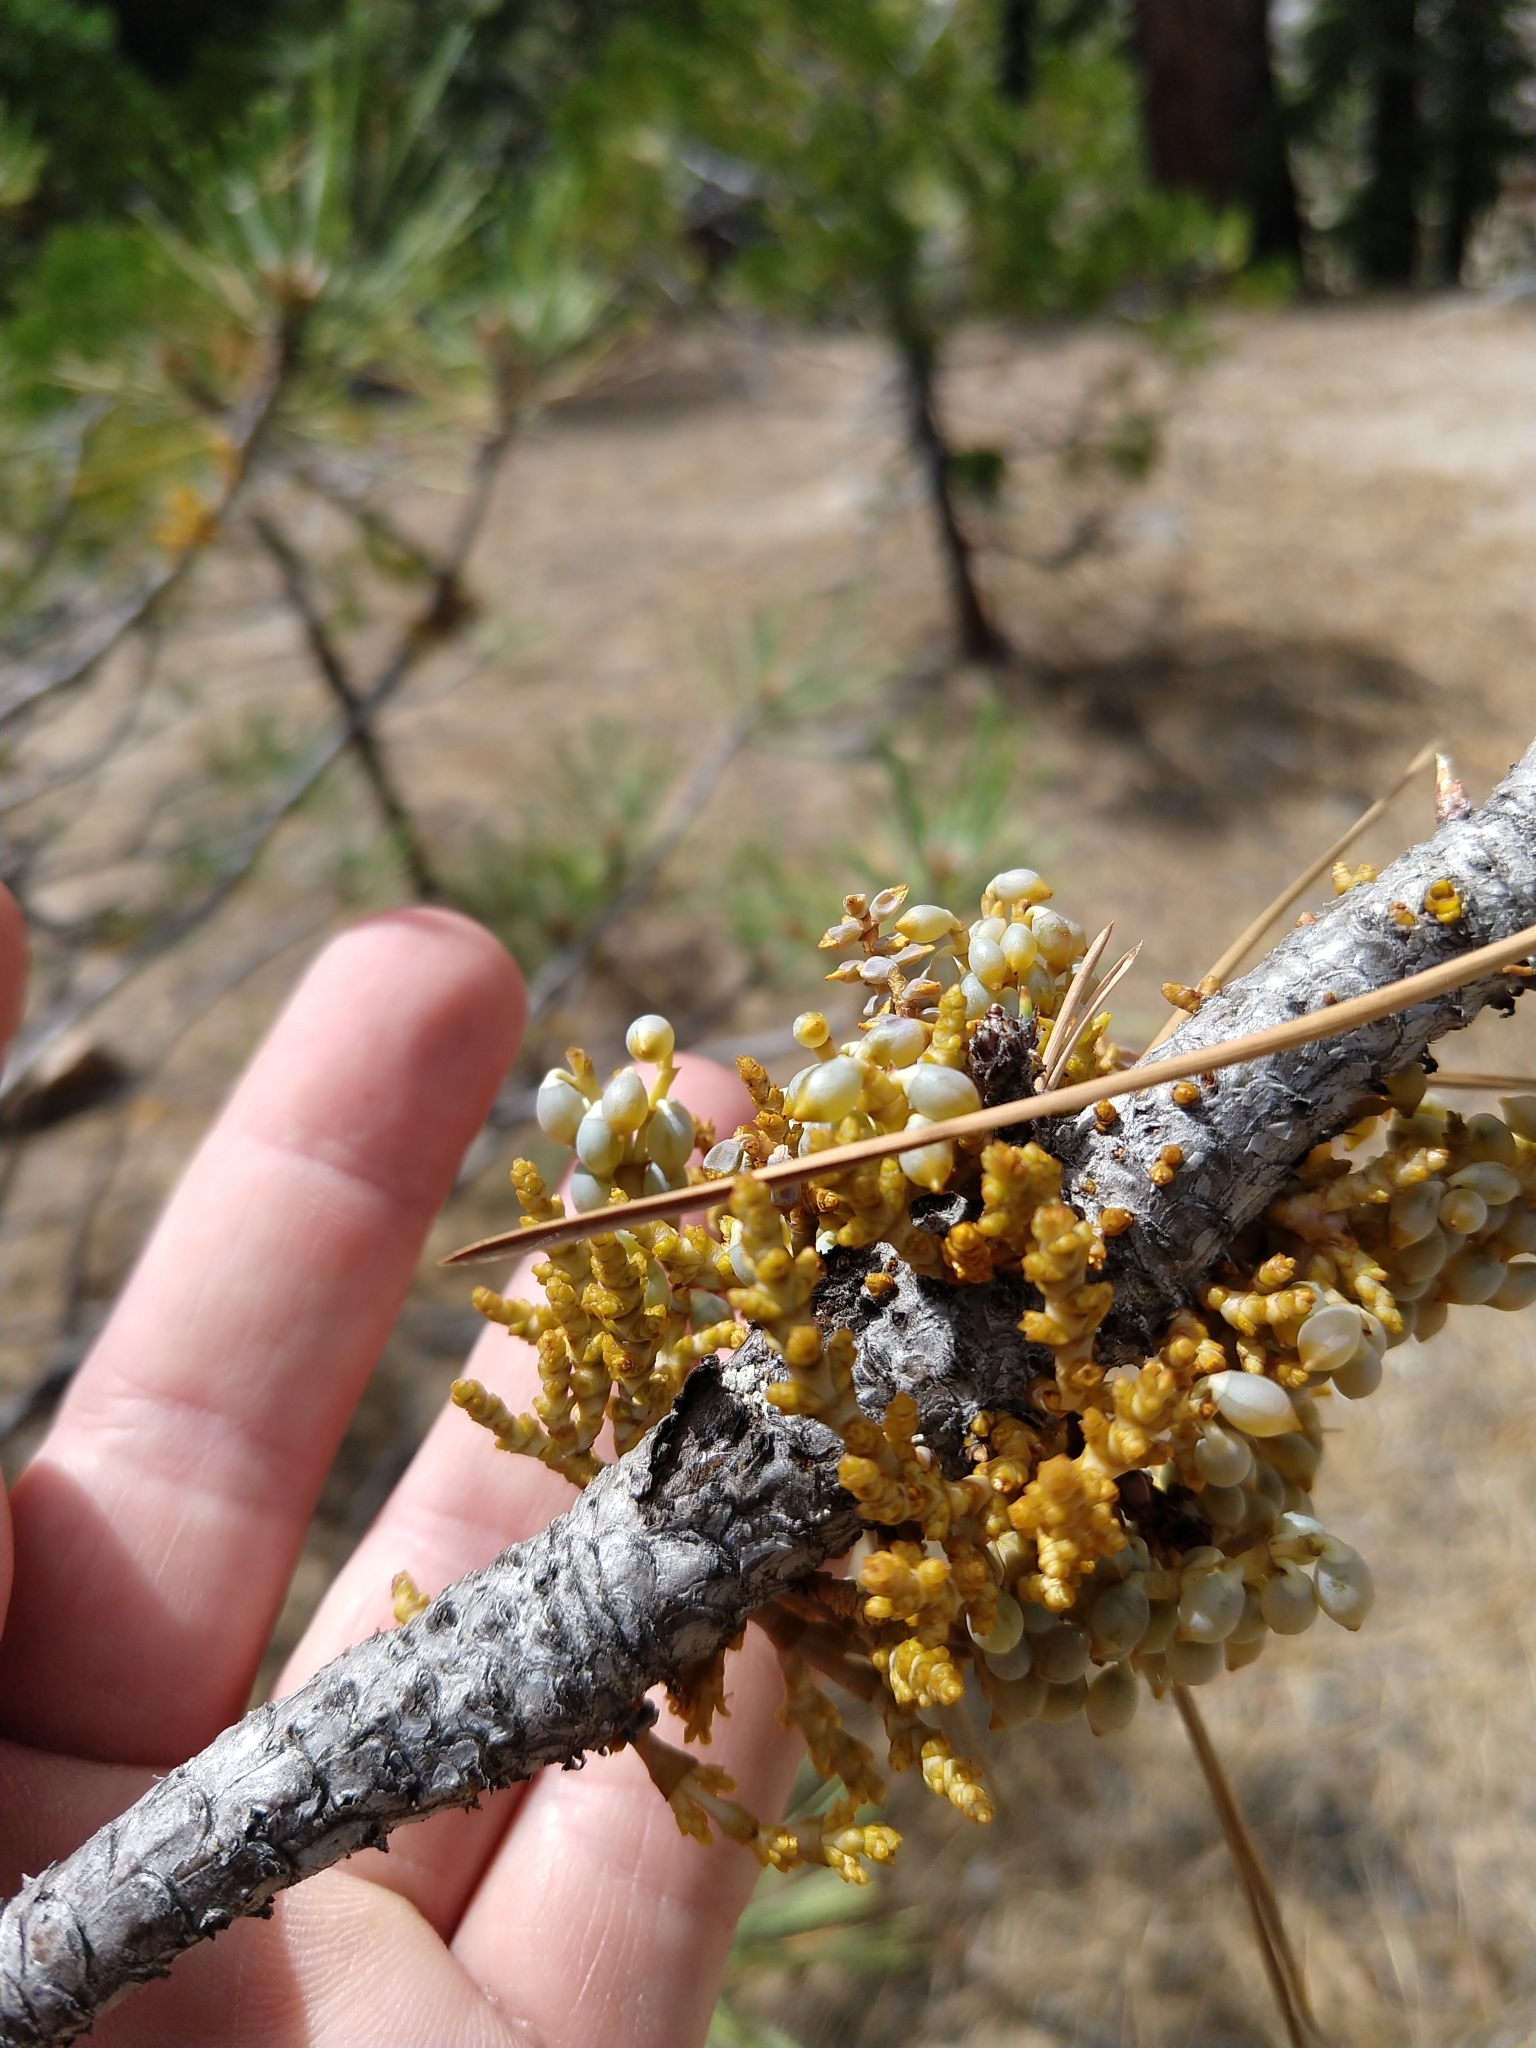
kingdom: Plantae
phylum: Tracheophyta
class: Magnoliopsida
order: Santalales
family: Viscaceae
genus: Arceuthobium
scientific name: Arceuthobium campylopodum
